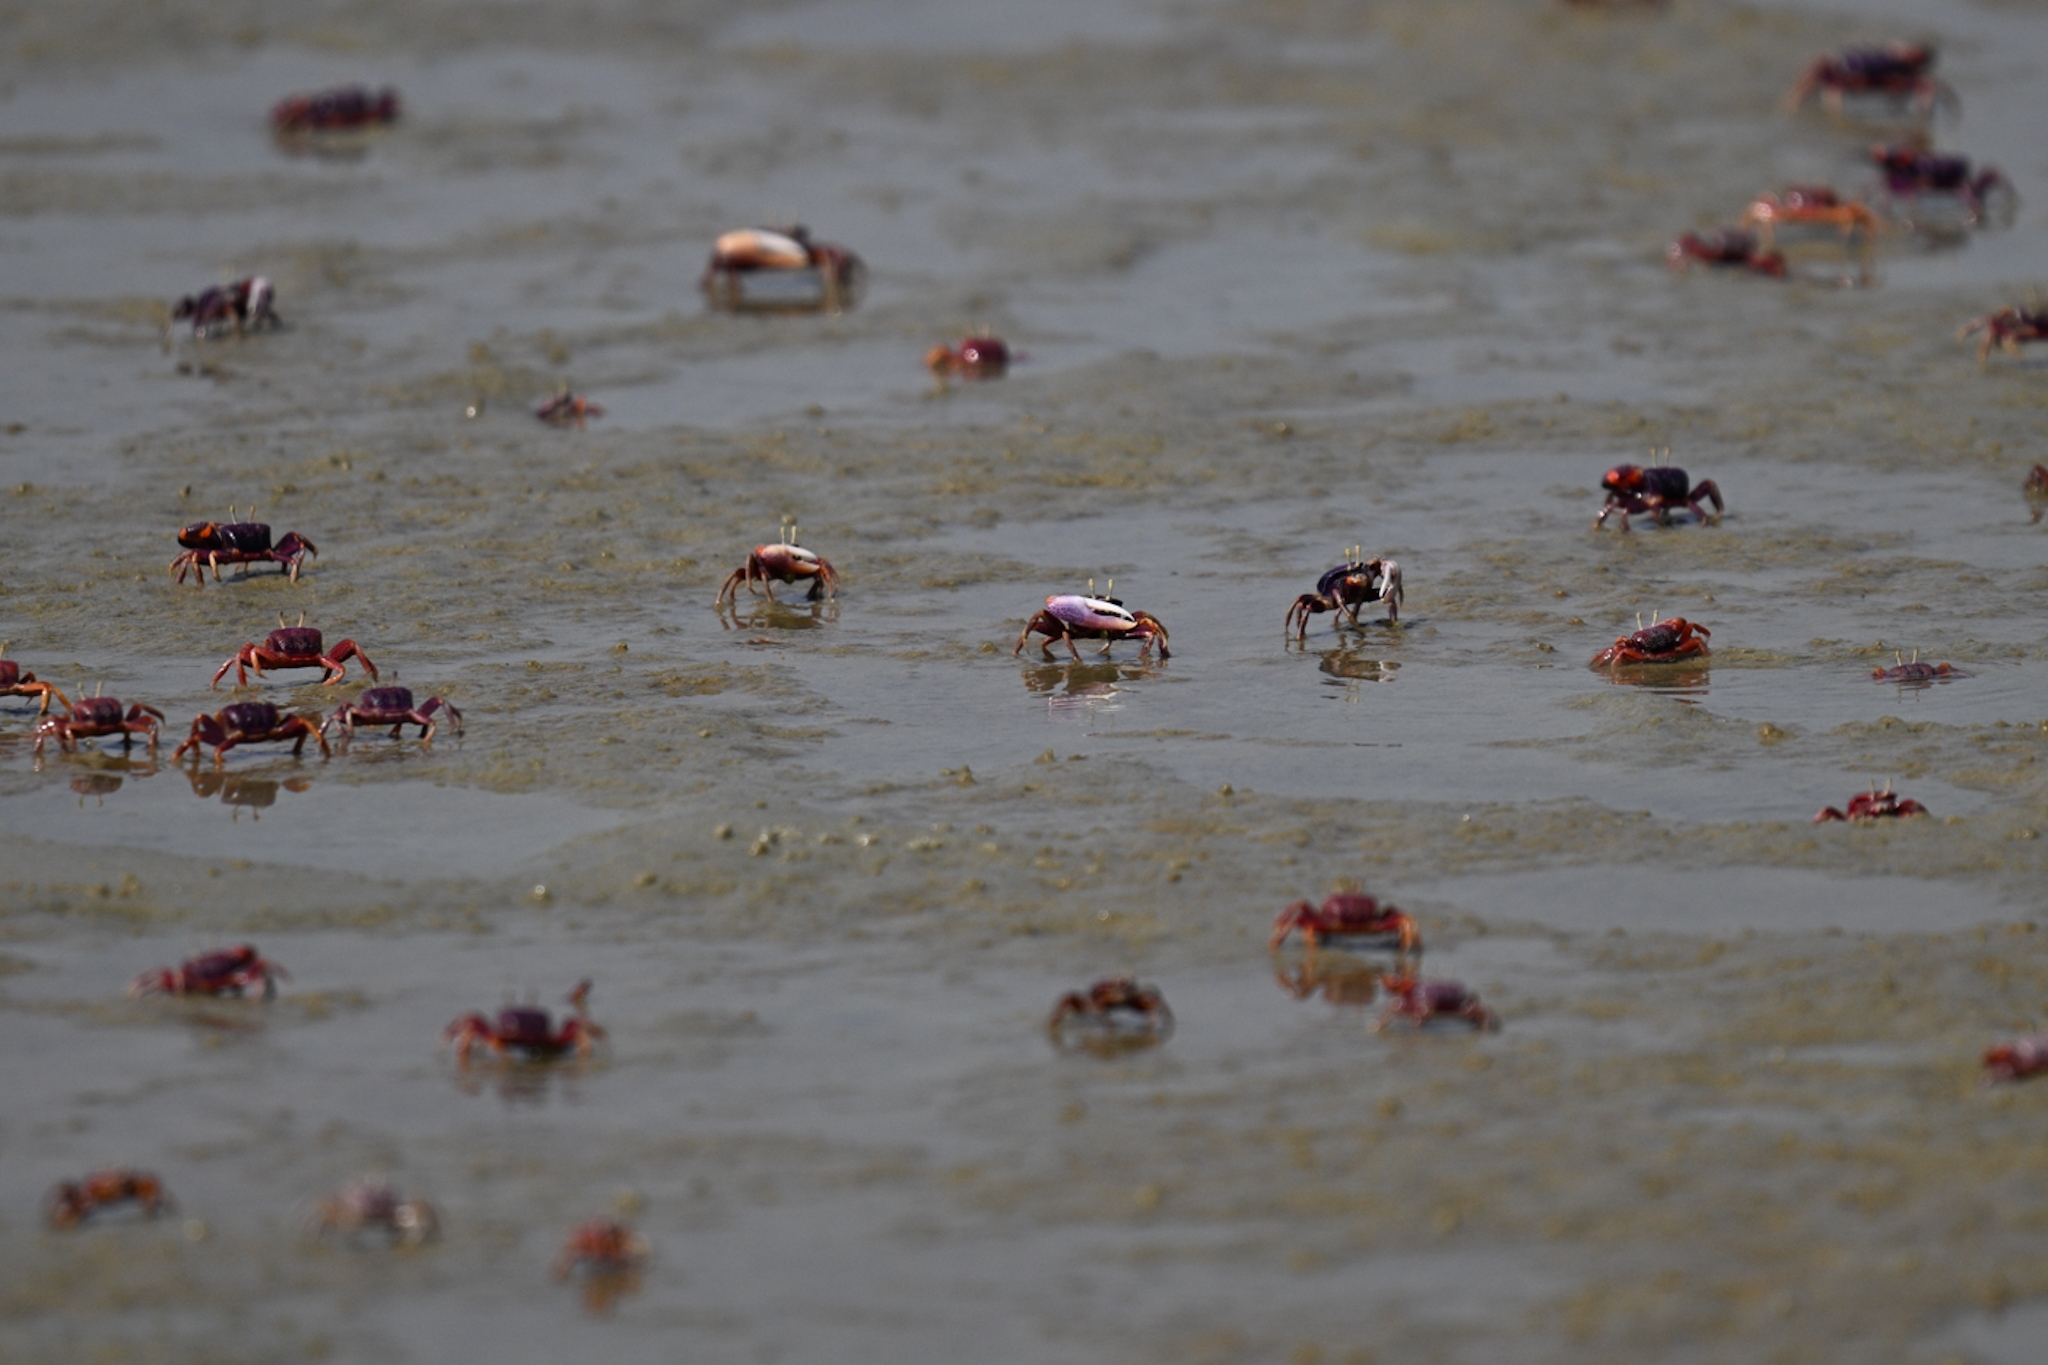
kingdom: Animalia
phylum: Arthropoda
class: Malacostraca
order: Decapoda
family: Ocypodidae
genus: Afruca
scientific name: Afruca tangeri
